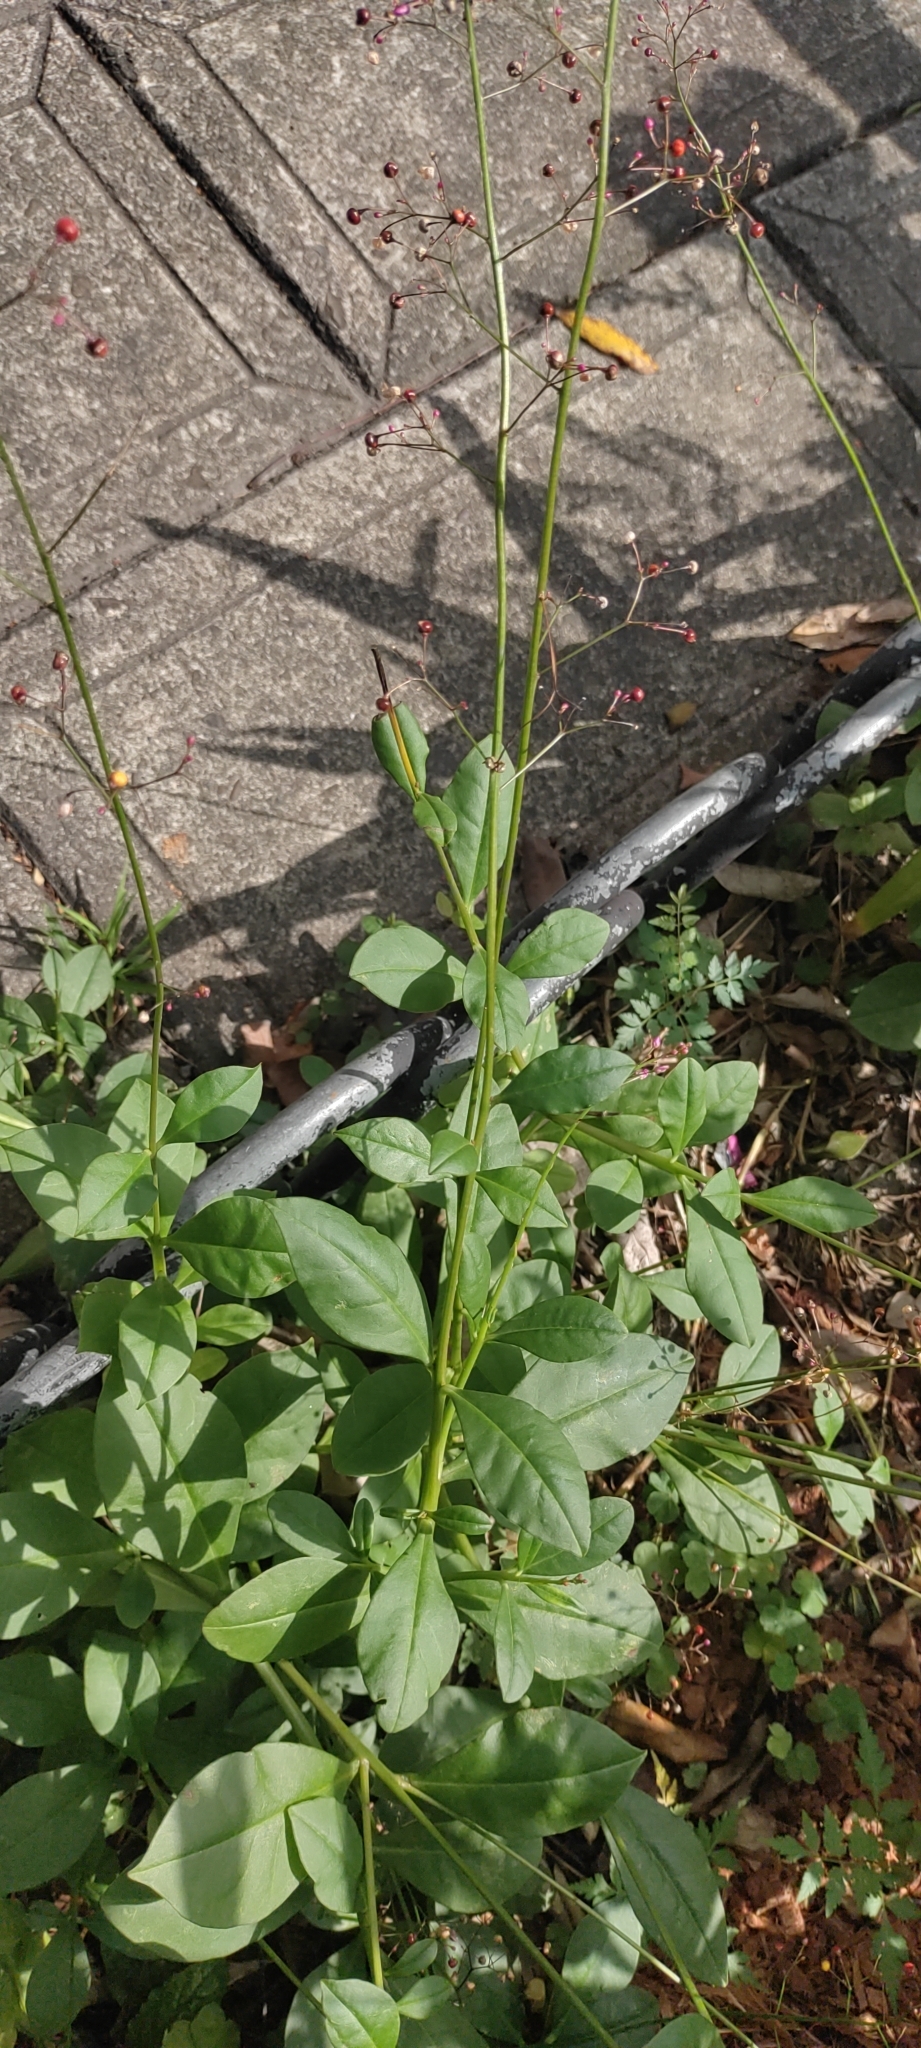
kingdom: Plantae
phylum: Tracheophyta
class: Magnoliopsida
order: Caryophyllales
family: Talinaceae
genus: Talinum
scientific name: Talinum paniculatum
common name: Jewels of opar
